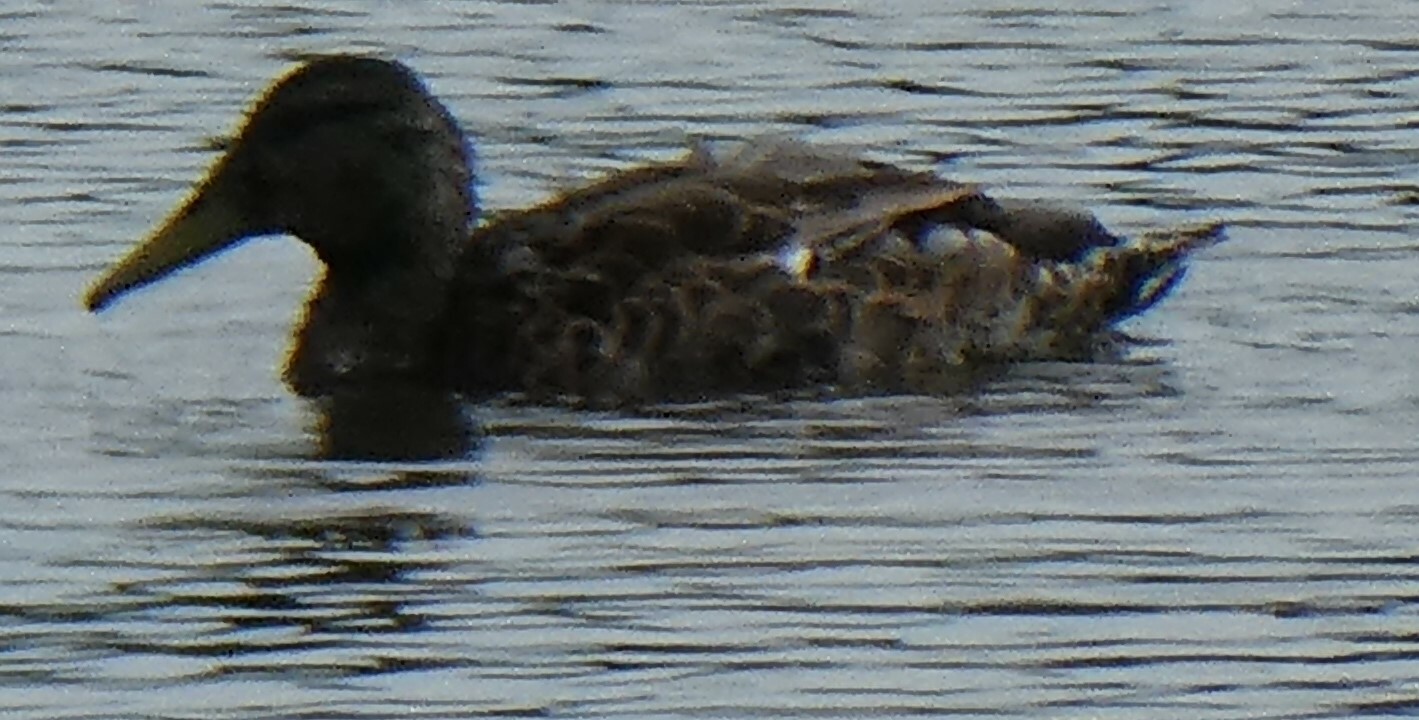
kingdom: Animalia
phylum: Chordata
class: Aves
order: Anseriformes
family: Anatidae
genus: Anas
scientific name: Anas platyrhynchos
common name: Mallard
